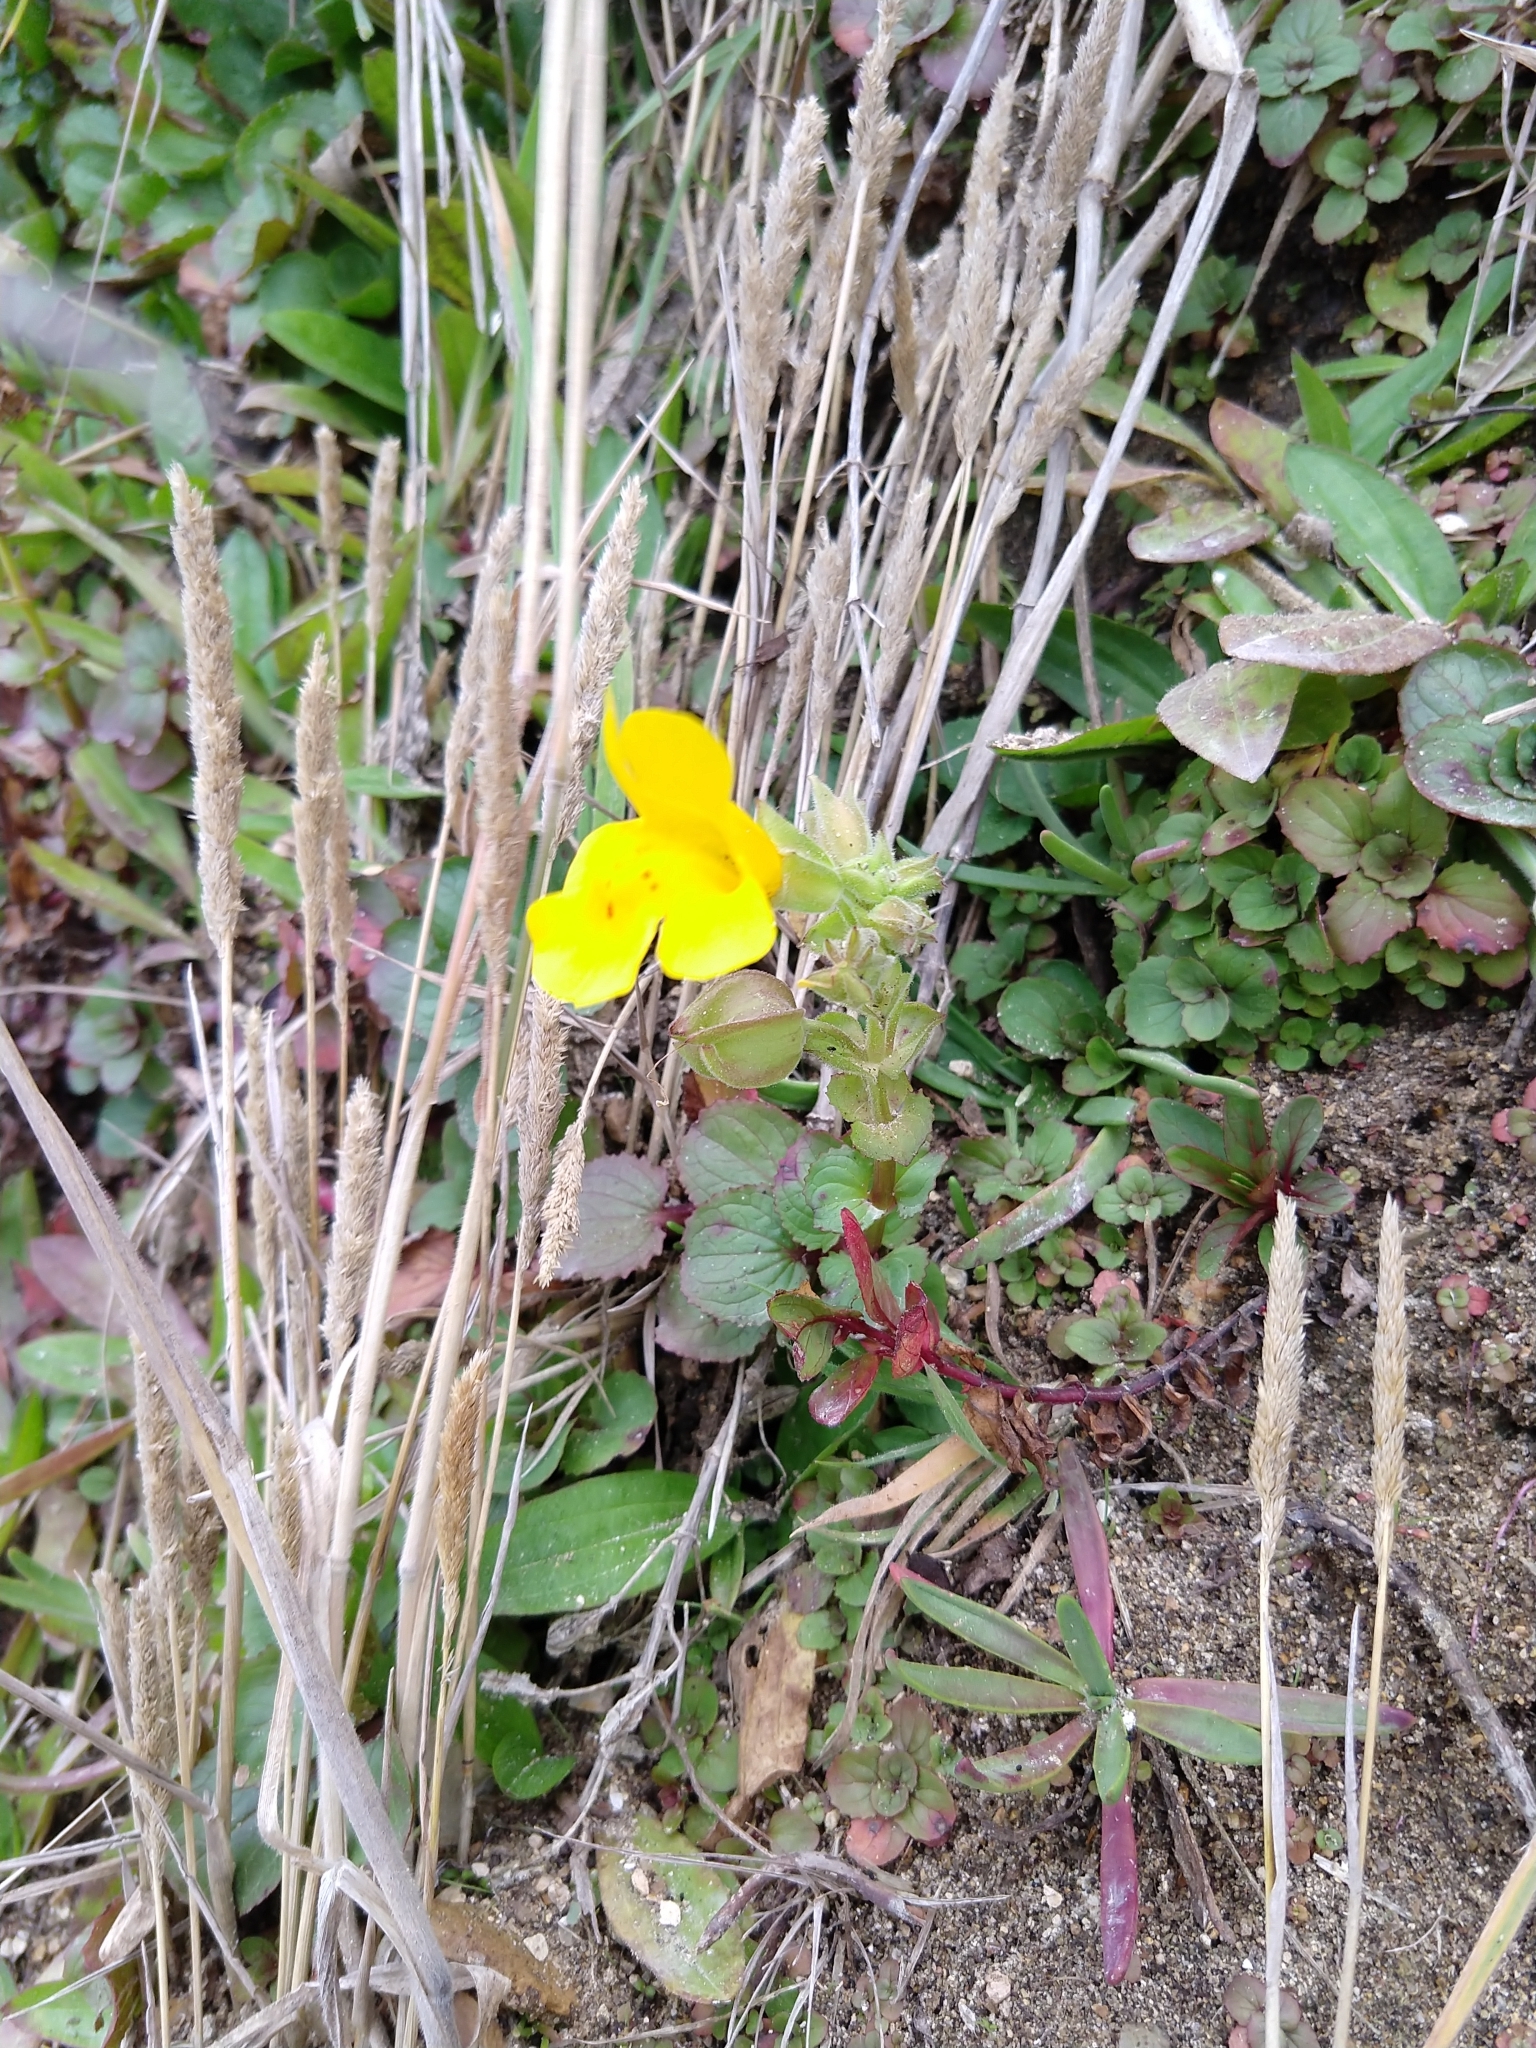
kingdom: Plantae
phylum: Tracheophyta
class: Magnoliopsida
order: Lamiales
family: Phrymaceae
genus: Erythranthe
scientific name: Erythranthe grandis
